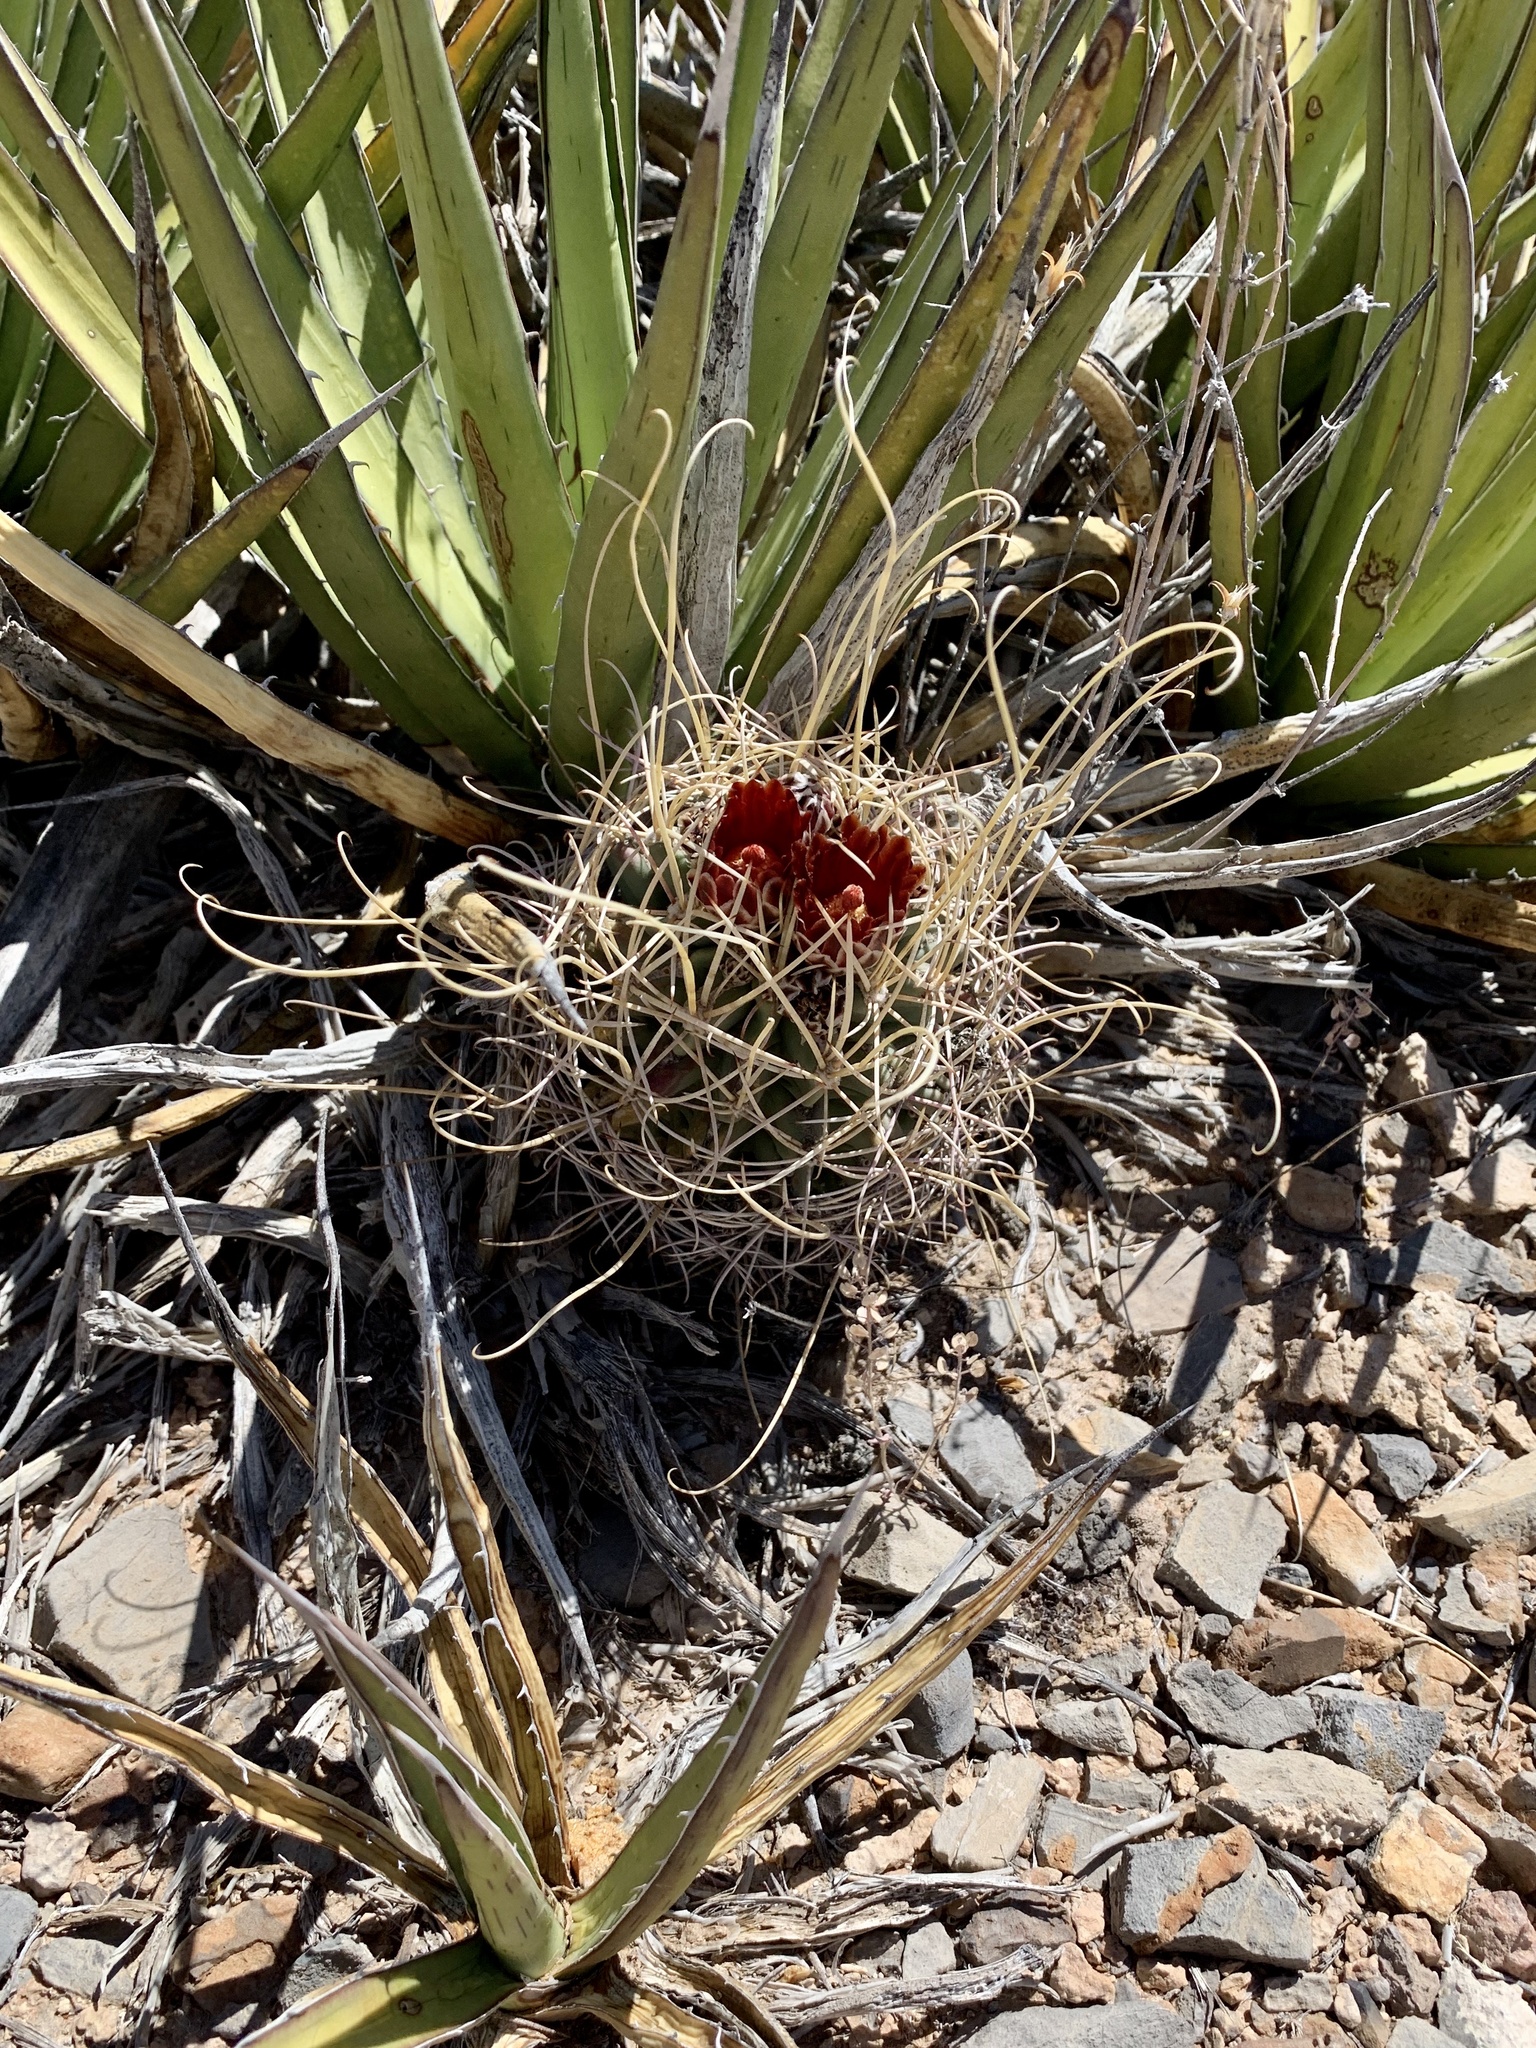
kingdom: Plantae
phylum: Tracheophyta
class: Magnoliopsida
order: Caryophyllales
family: Cactaceae
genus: Ferocactus
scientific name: Ferocactus uncinatus
